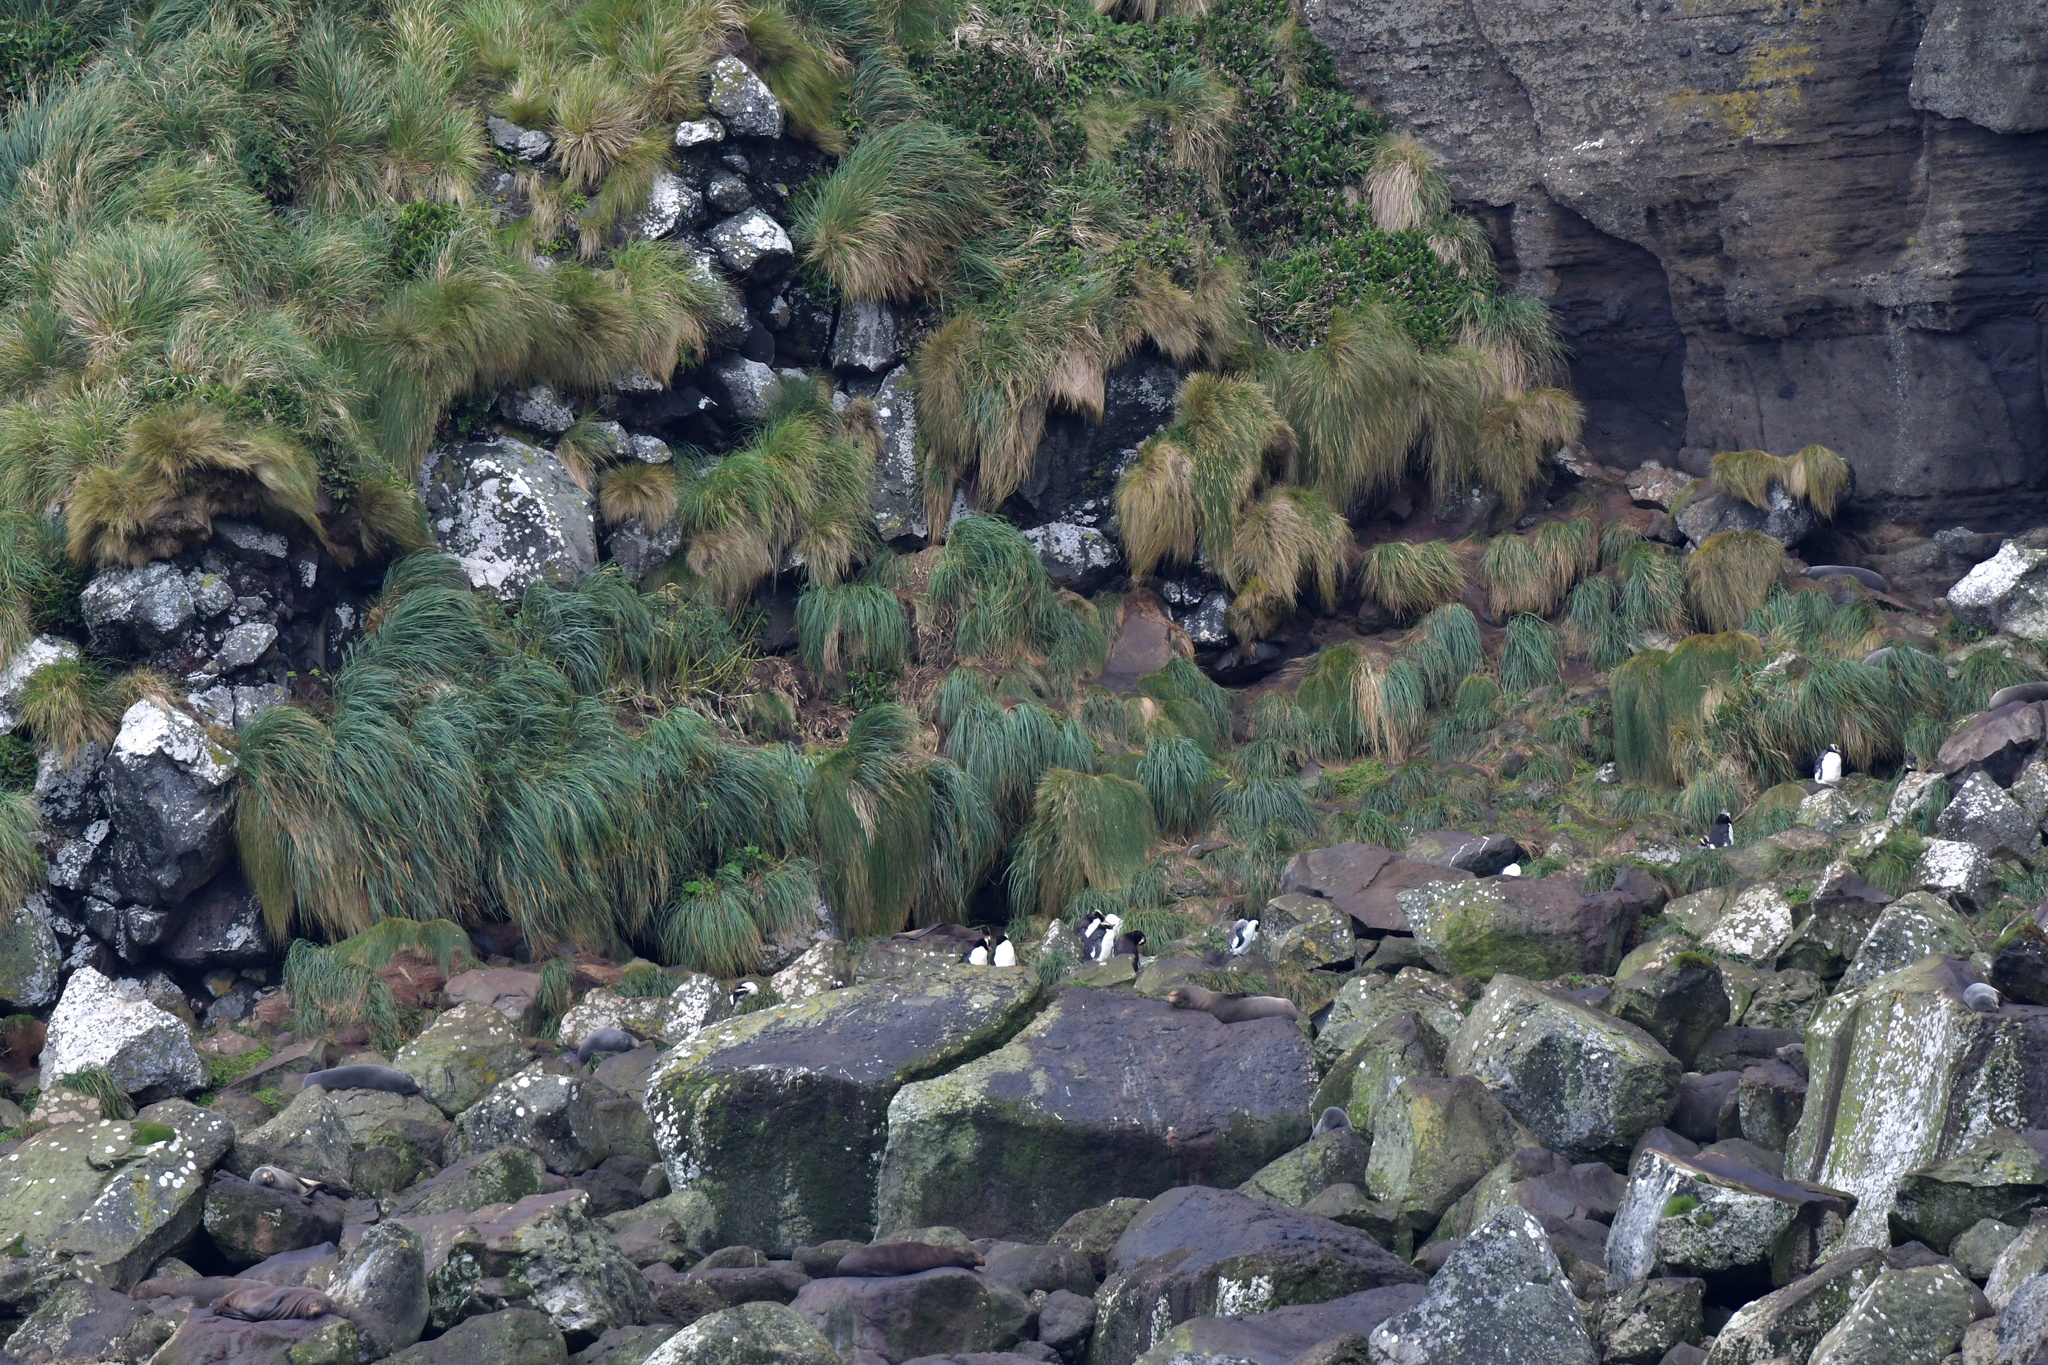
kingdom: Animalia
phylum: Chordata
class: Aves
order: Sphenisciformes
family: Spheniscidae
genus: Eudyptes
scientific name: Eudyptes sclateri
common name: Erect-crested penguin
